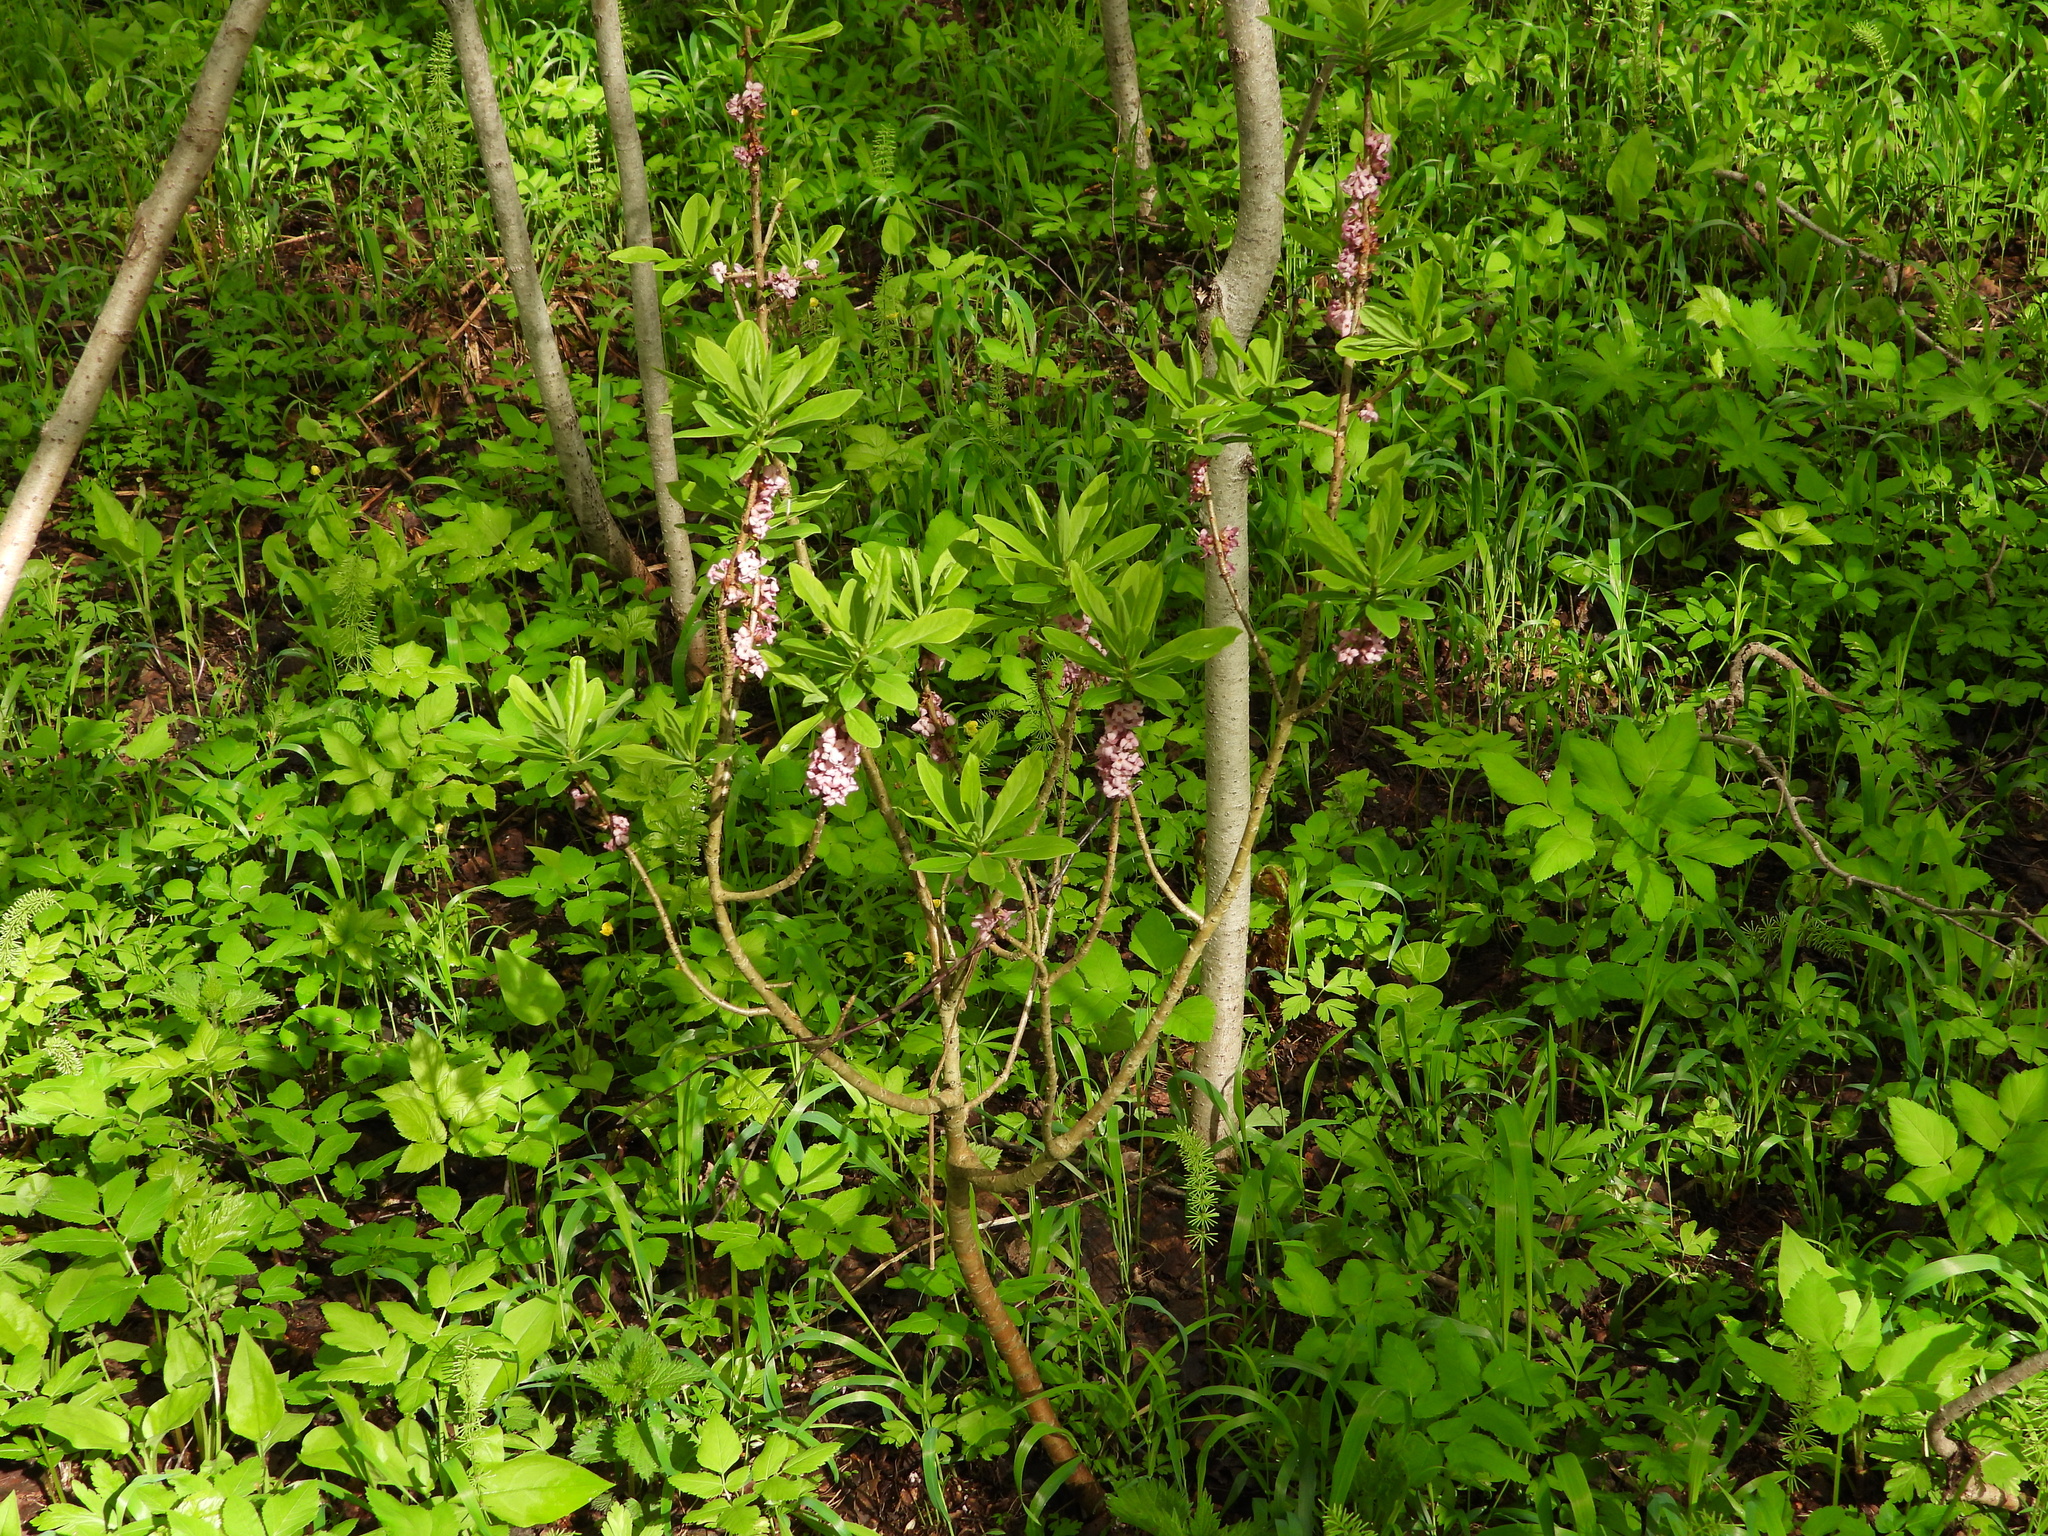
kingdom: Plantae
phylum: Tracheophyta
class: Magnoliopsida
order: Malvales
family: Thymelaeaceae
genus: Daphne
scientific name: Daphne mezereum
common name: Mezereon
